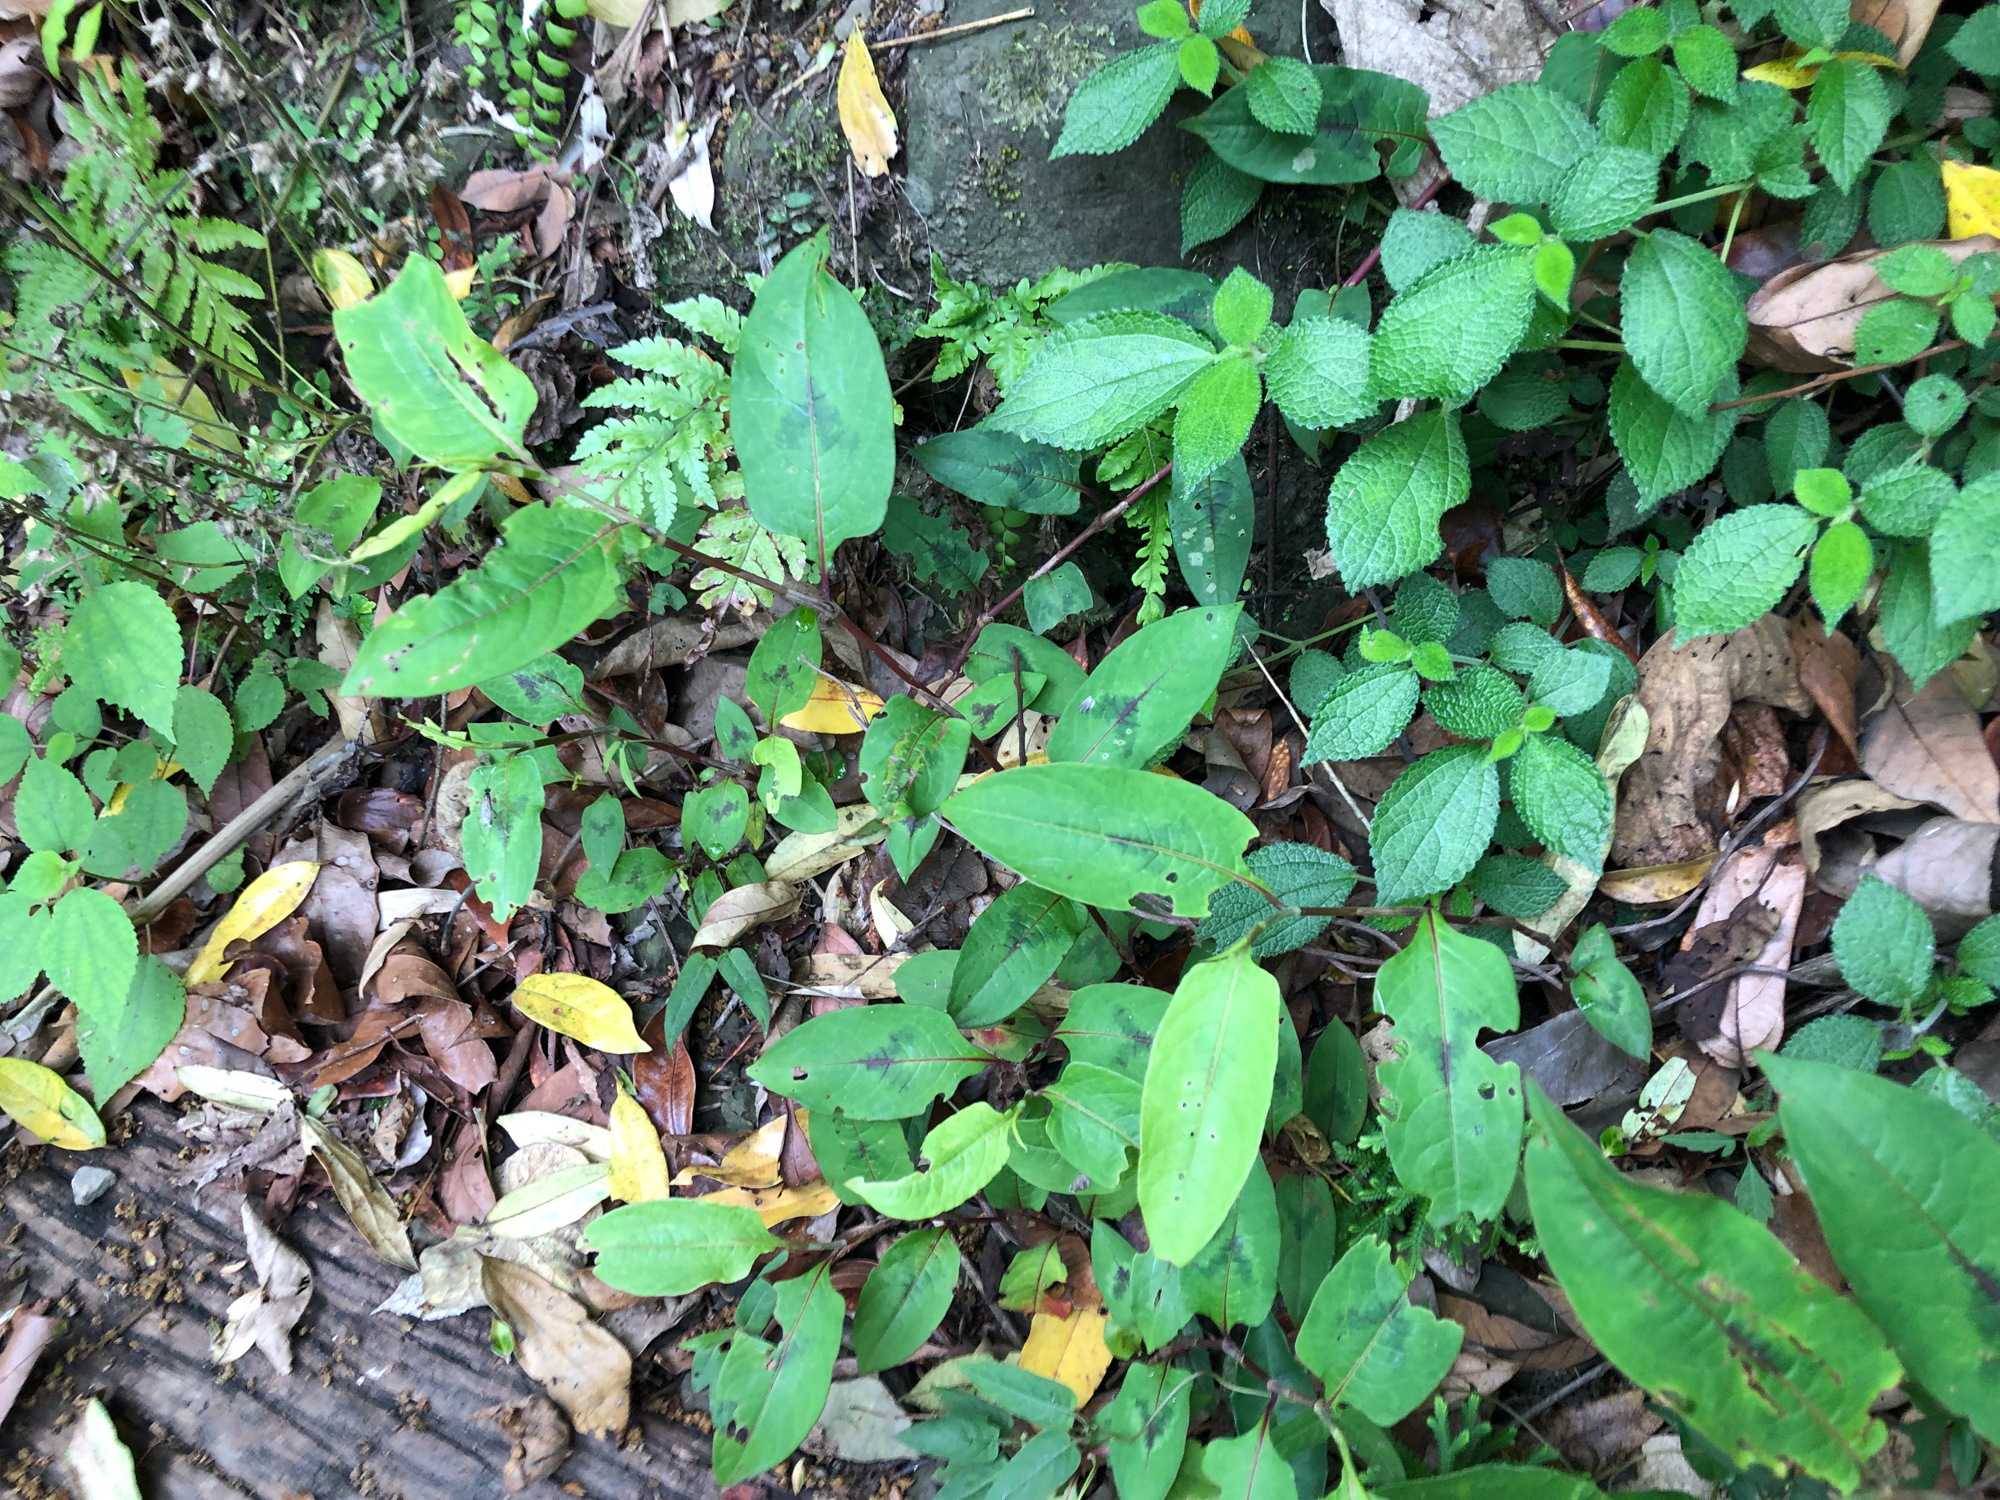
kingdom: Plantae
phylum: Tracheophyta
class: Magnoliopsida
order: Caryophyllales
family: Polygonaceae
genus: Persicaria
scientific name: Persicaria chinensis
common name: Chinese knotweed
